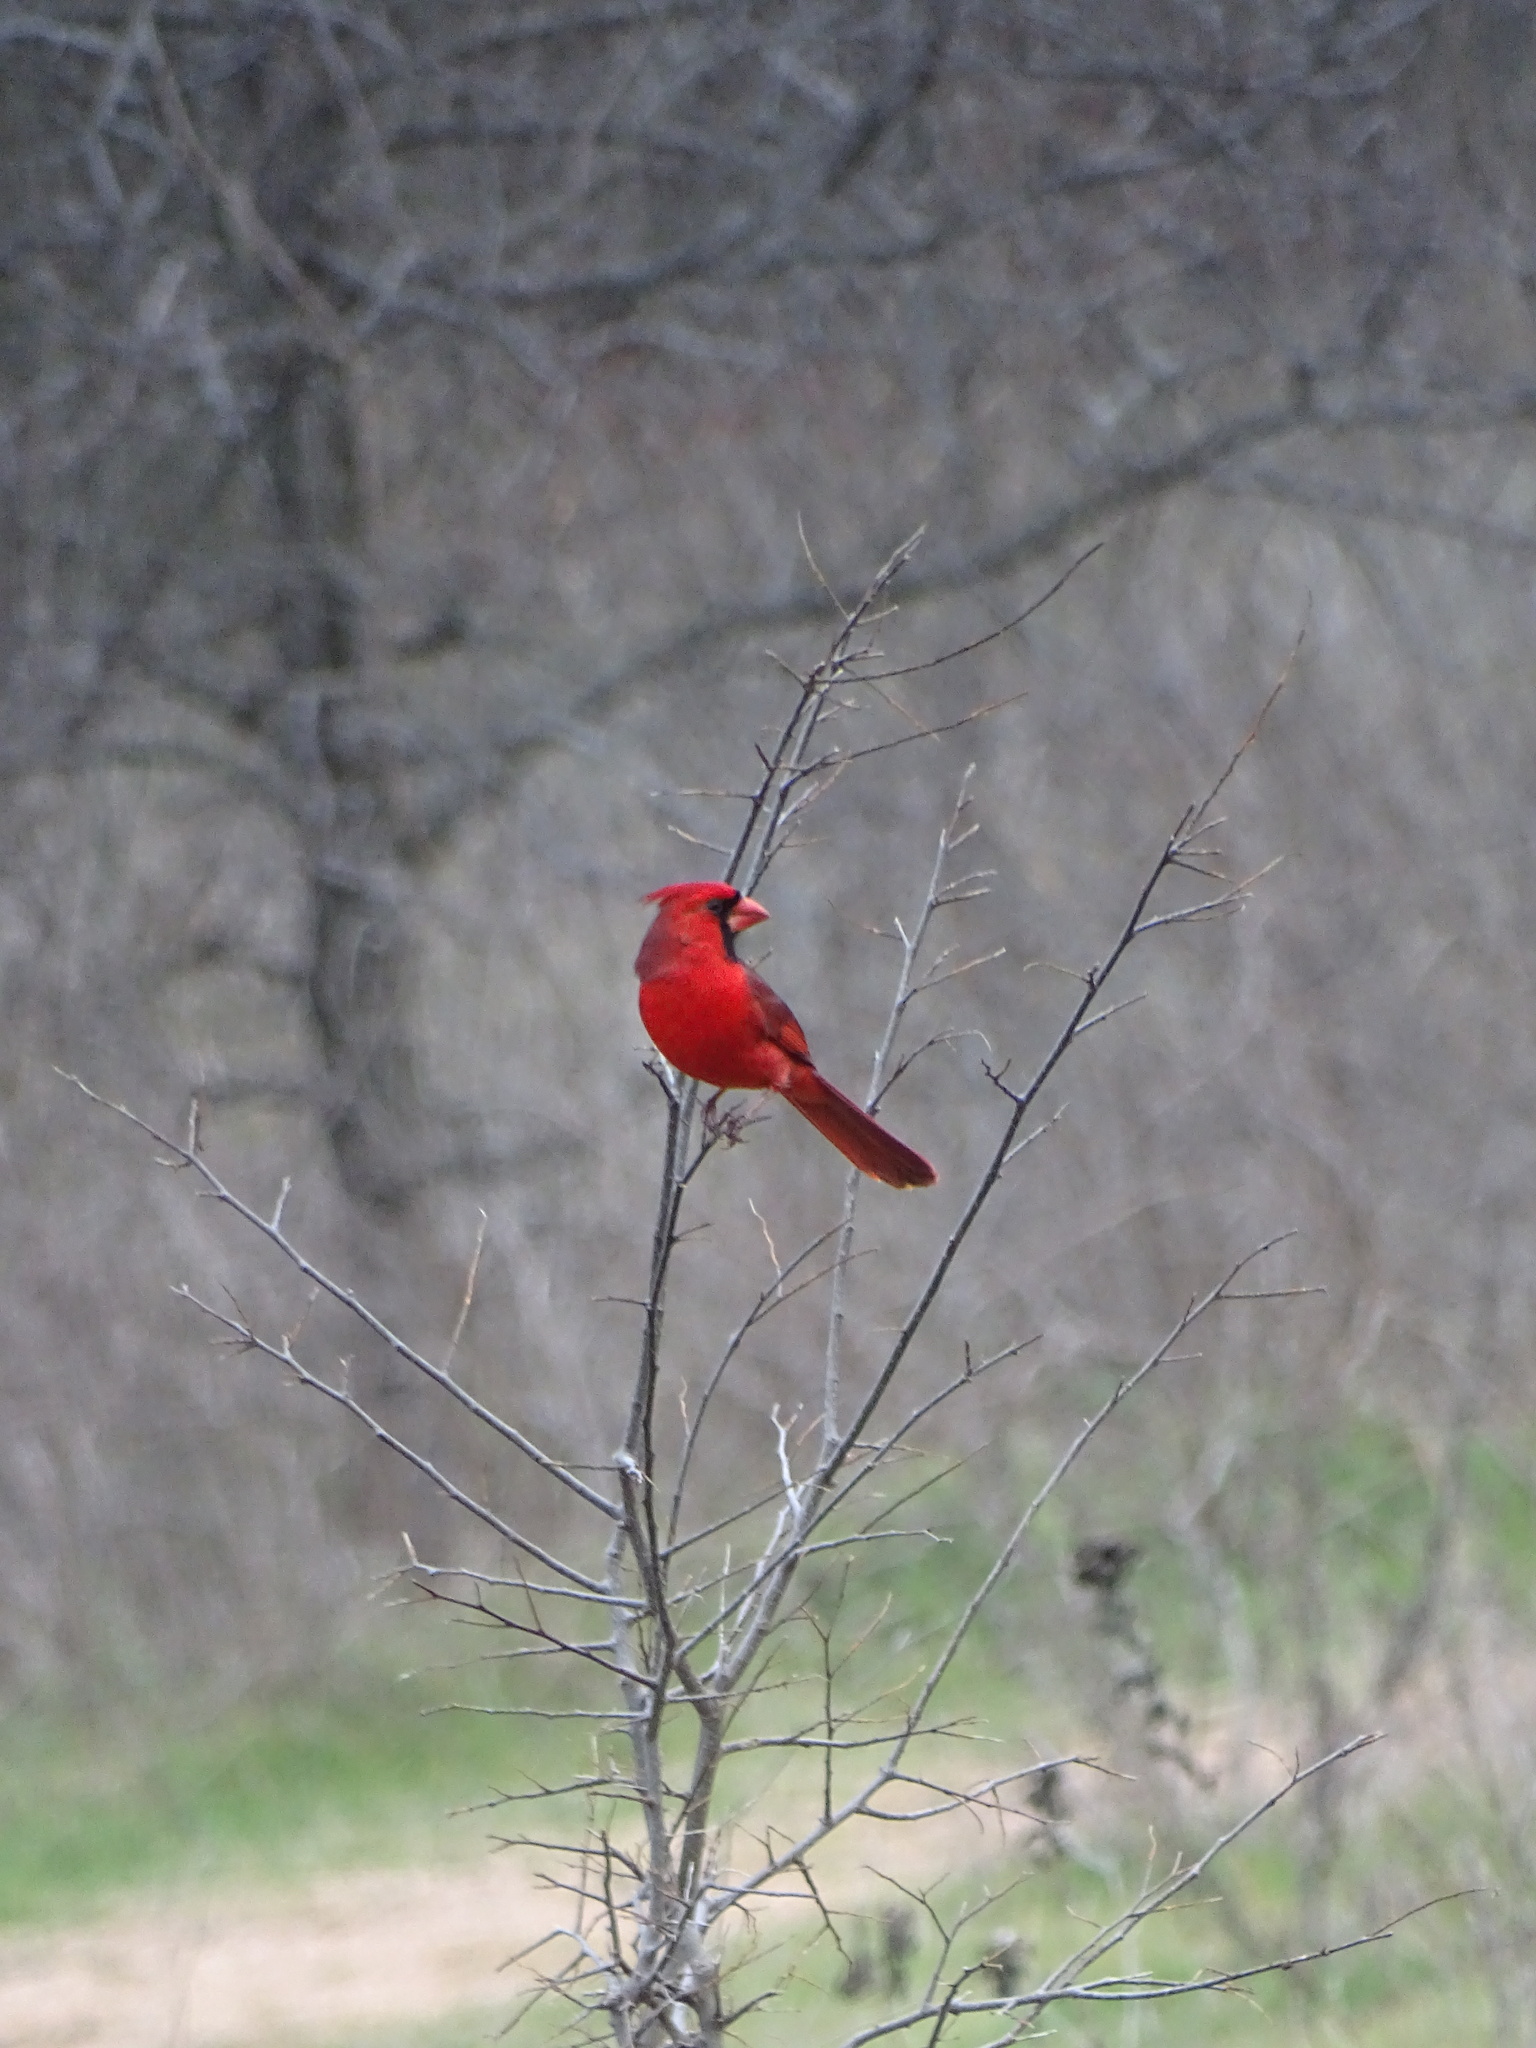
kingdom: Animalia
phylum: Chordata
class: Aves
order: Passeriformes
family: Cardinalidae
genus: Cardinalis
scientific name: Cardinalis cardinalis
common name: Northern cardinal
